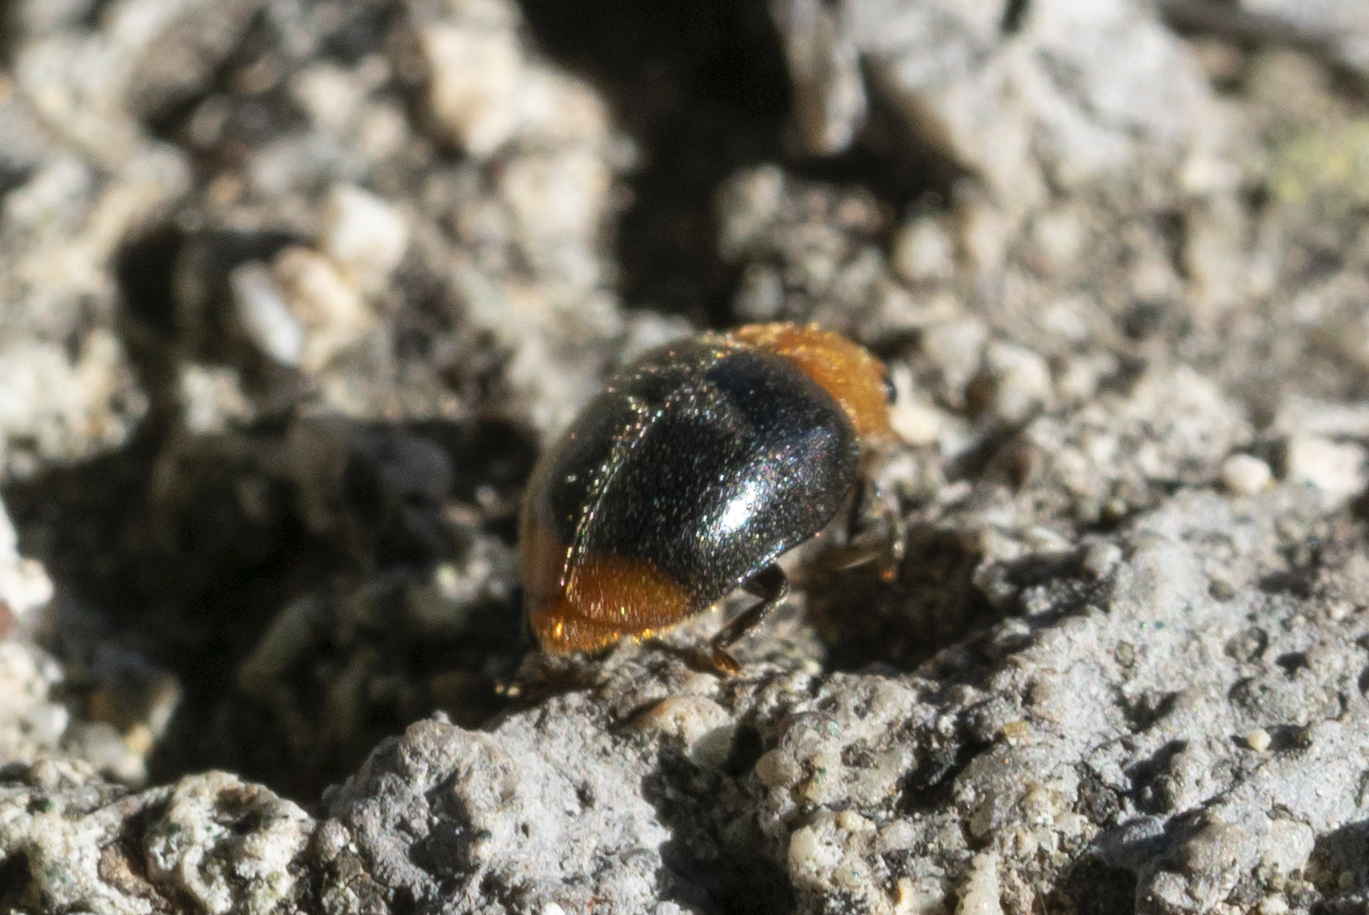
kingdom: Animalia
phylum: Arthropoda
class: Insecta
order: Coleoptera
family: Coccinellidae
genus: Cryptolaemus
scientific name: Cryptolaemus montrouzieri
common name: Mealybug destroyer
